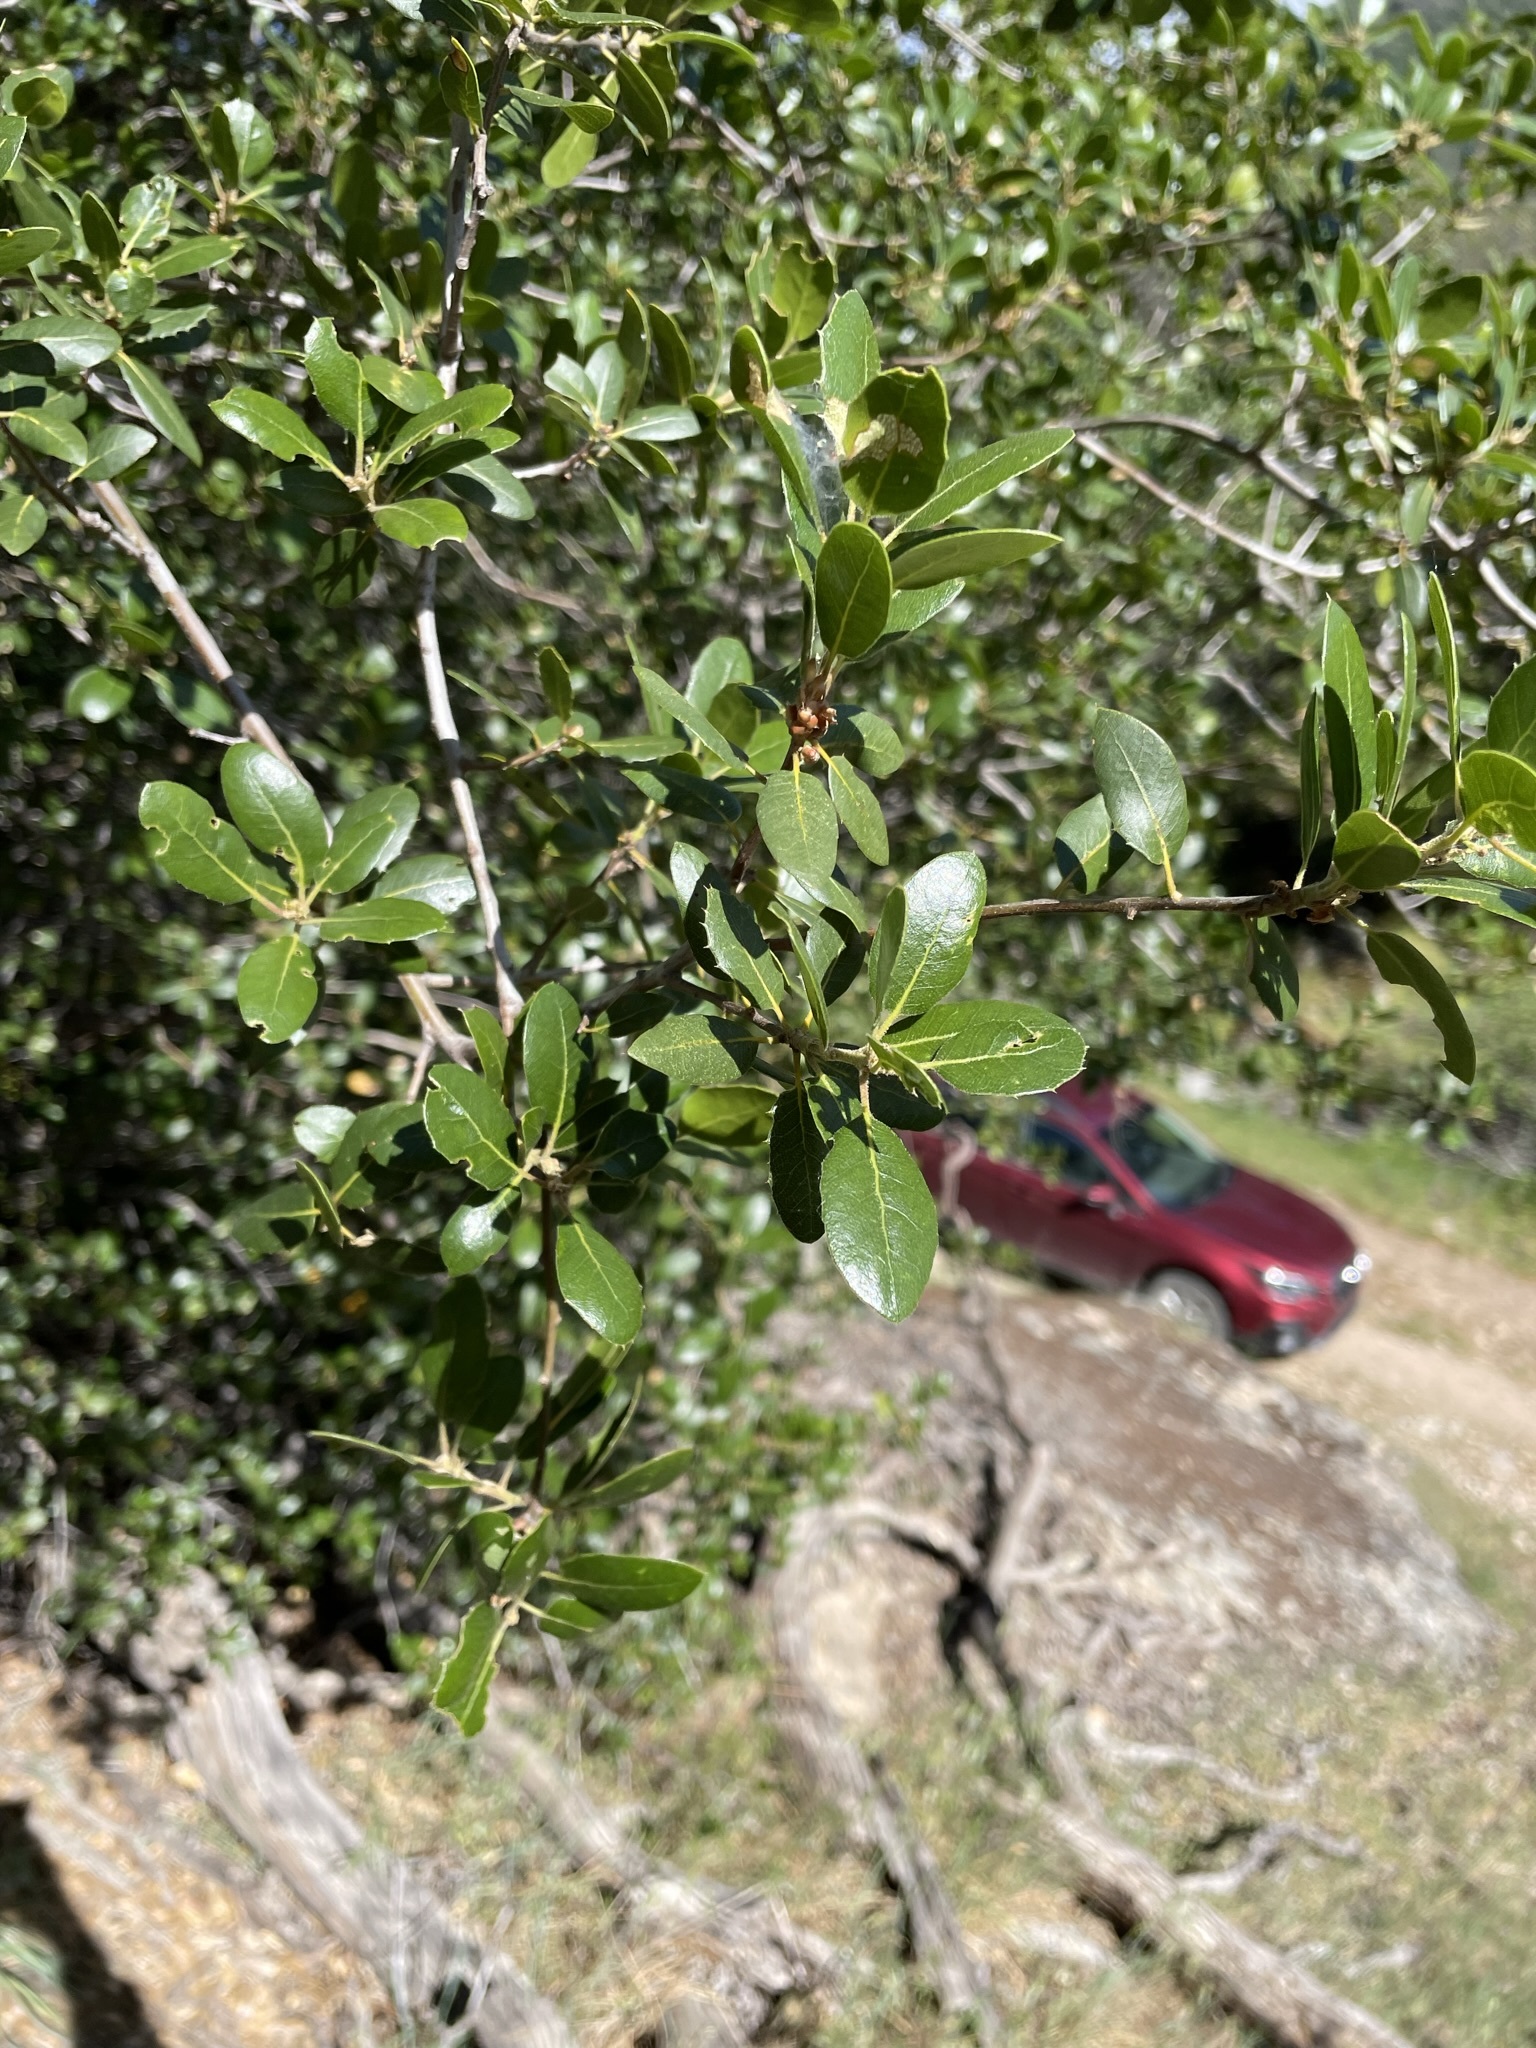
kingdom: Plantae
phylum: Tracheophyta
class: Magnoliopsida
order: Fagales
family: Fagaceae
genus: Quercus
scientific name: Quercus wislizeni
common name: Interior live oak
